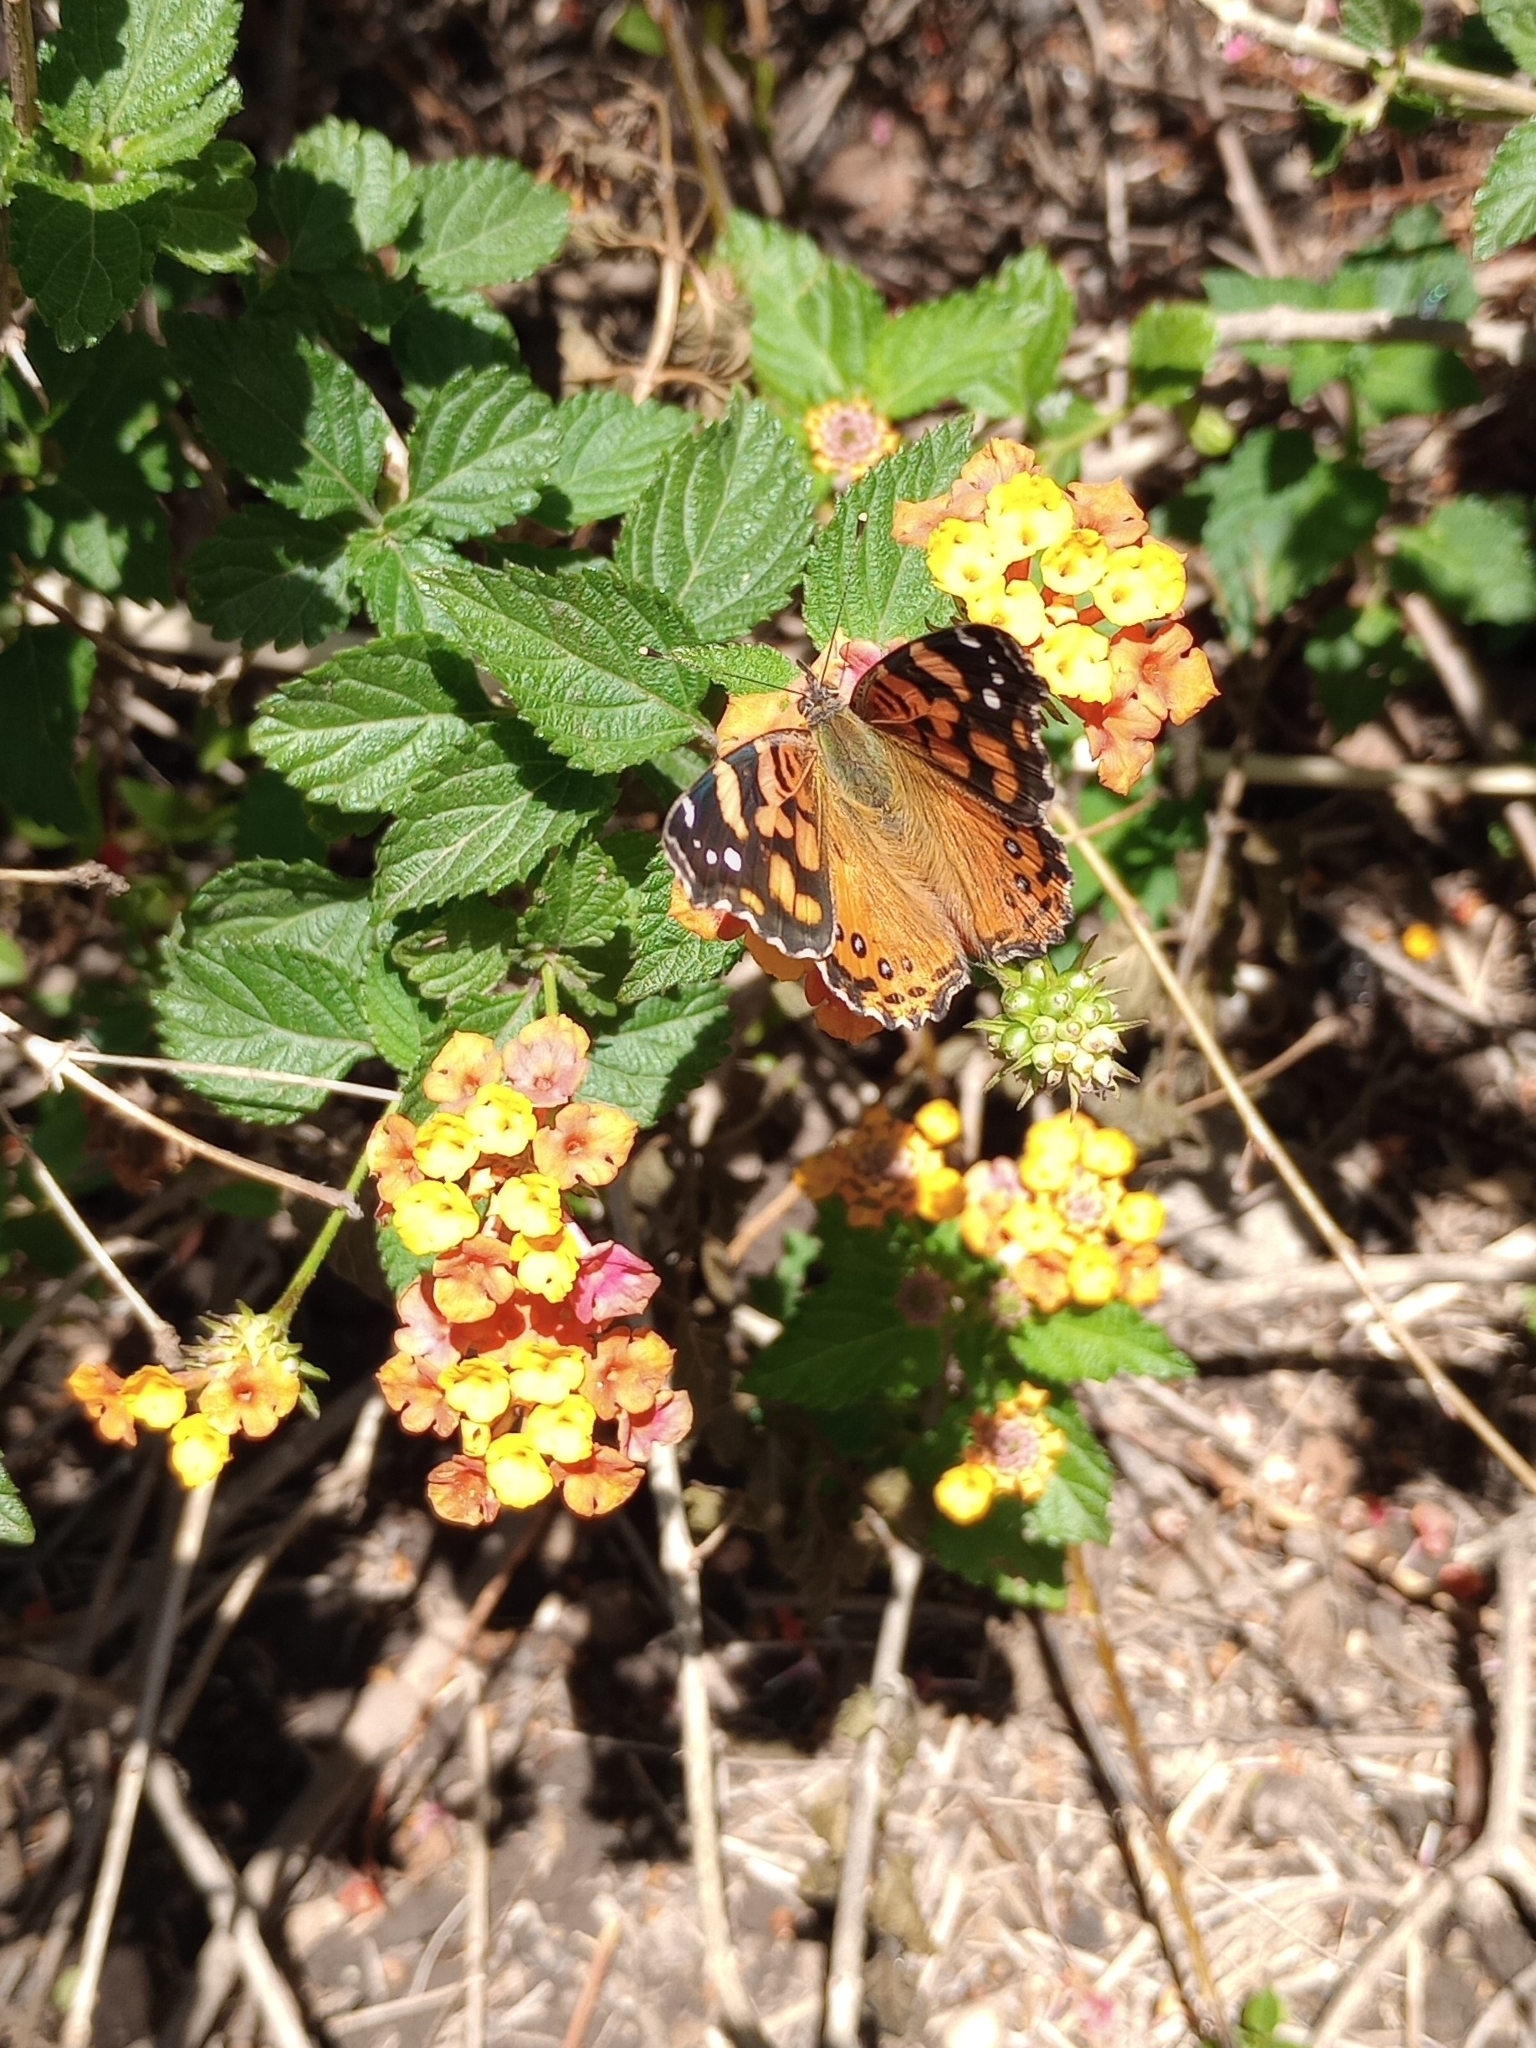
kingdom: Animalia
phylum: Arthropoda
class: Insecta
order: Lepidoptera
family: Nymphalidae
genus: Vanessa
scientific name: Vanessa carye
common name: Subtropical lady
